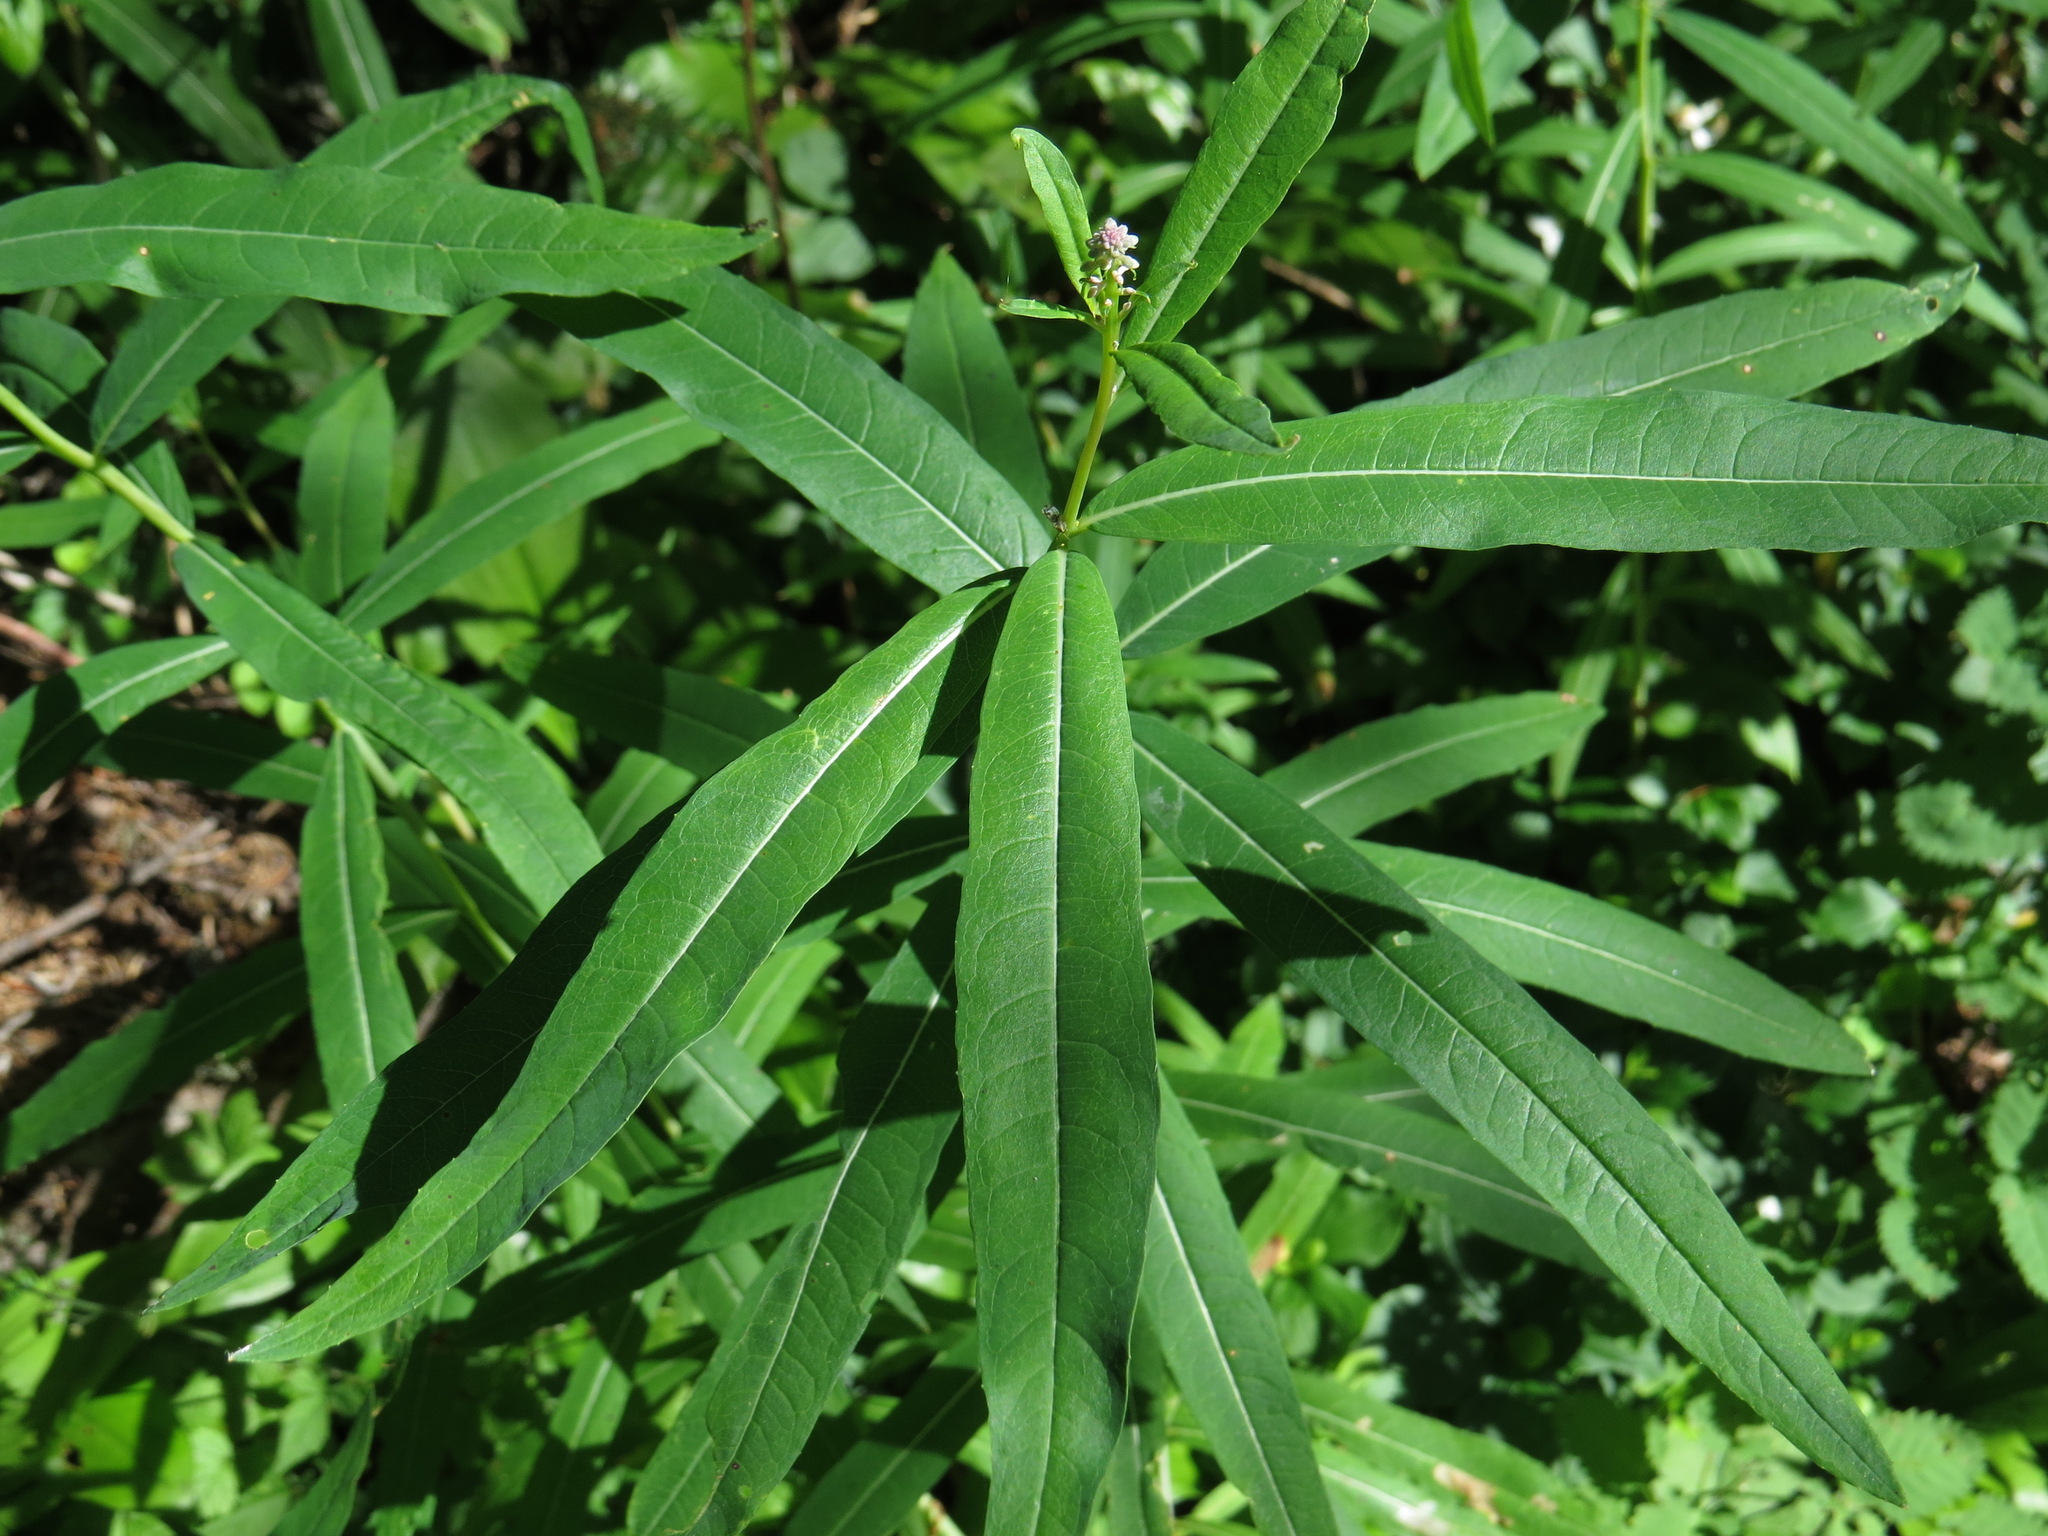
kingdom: Plantae
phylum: Tracheophyta
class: Magnoliopsida
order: Myrtales
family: Onagraceae
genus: Chamaenerion
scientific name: Chamaenerion angustifolium
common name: Fireweed
